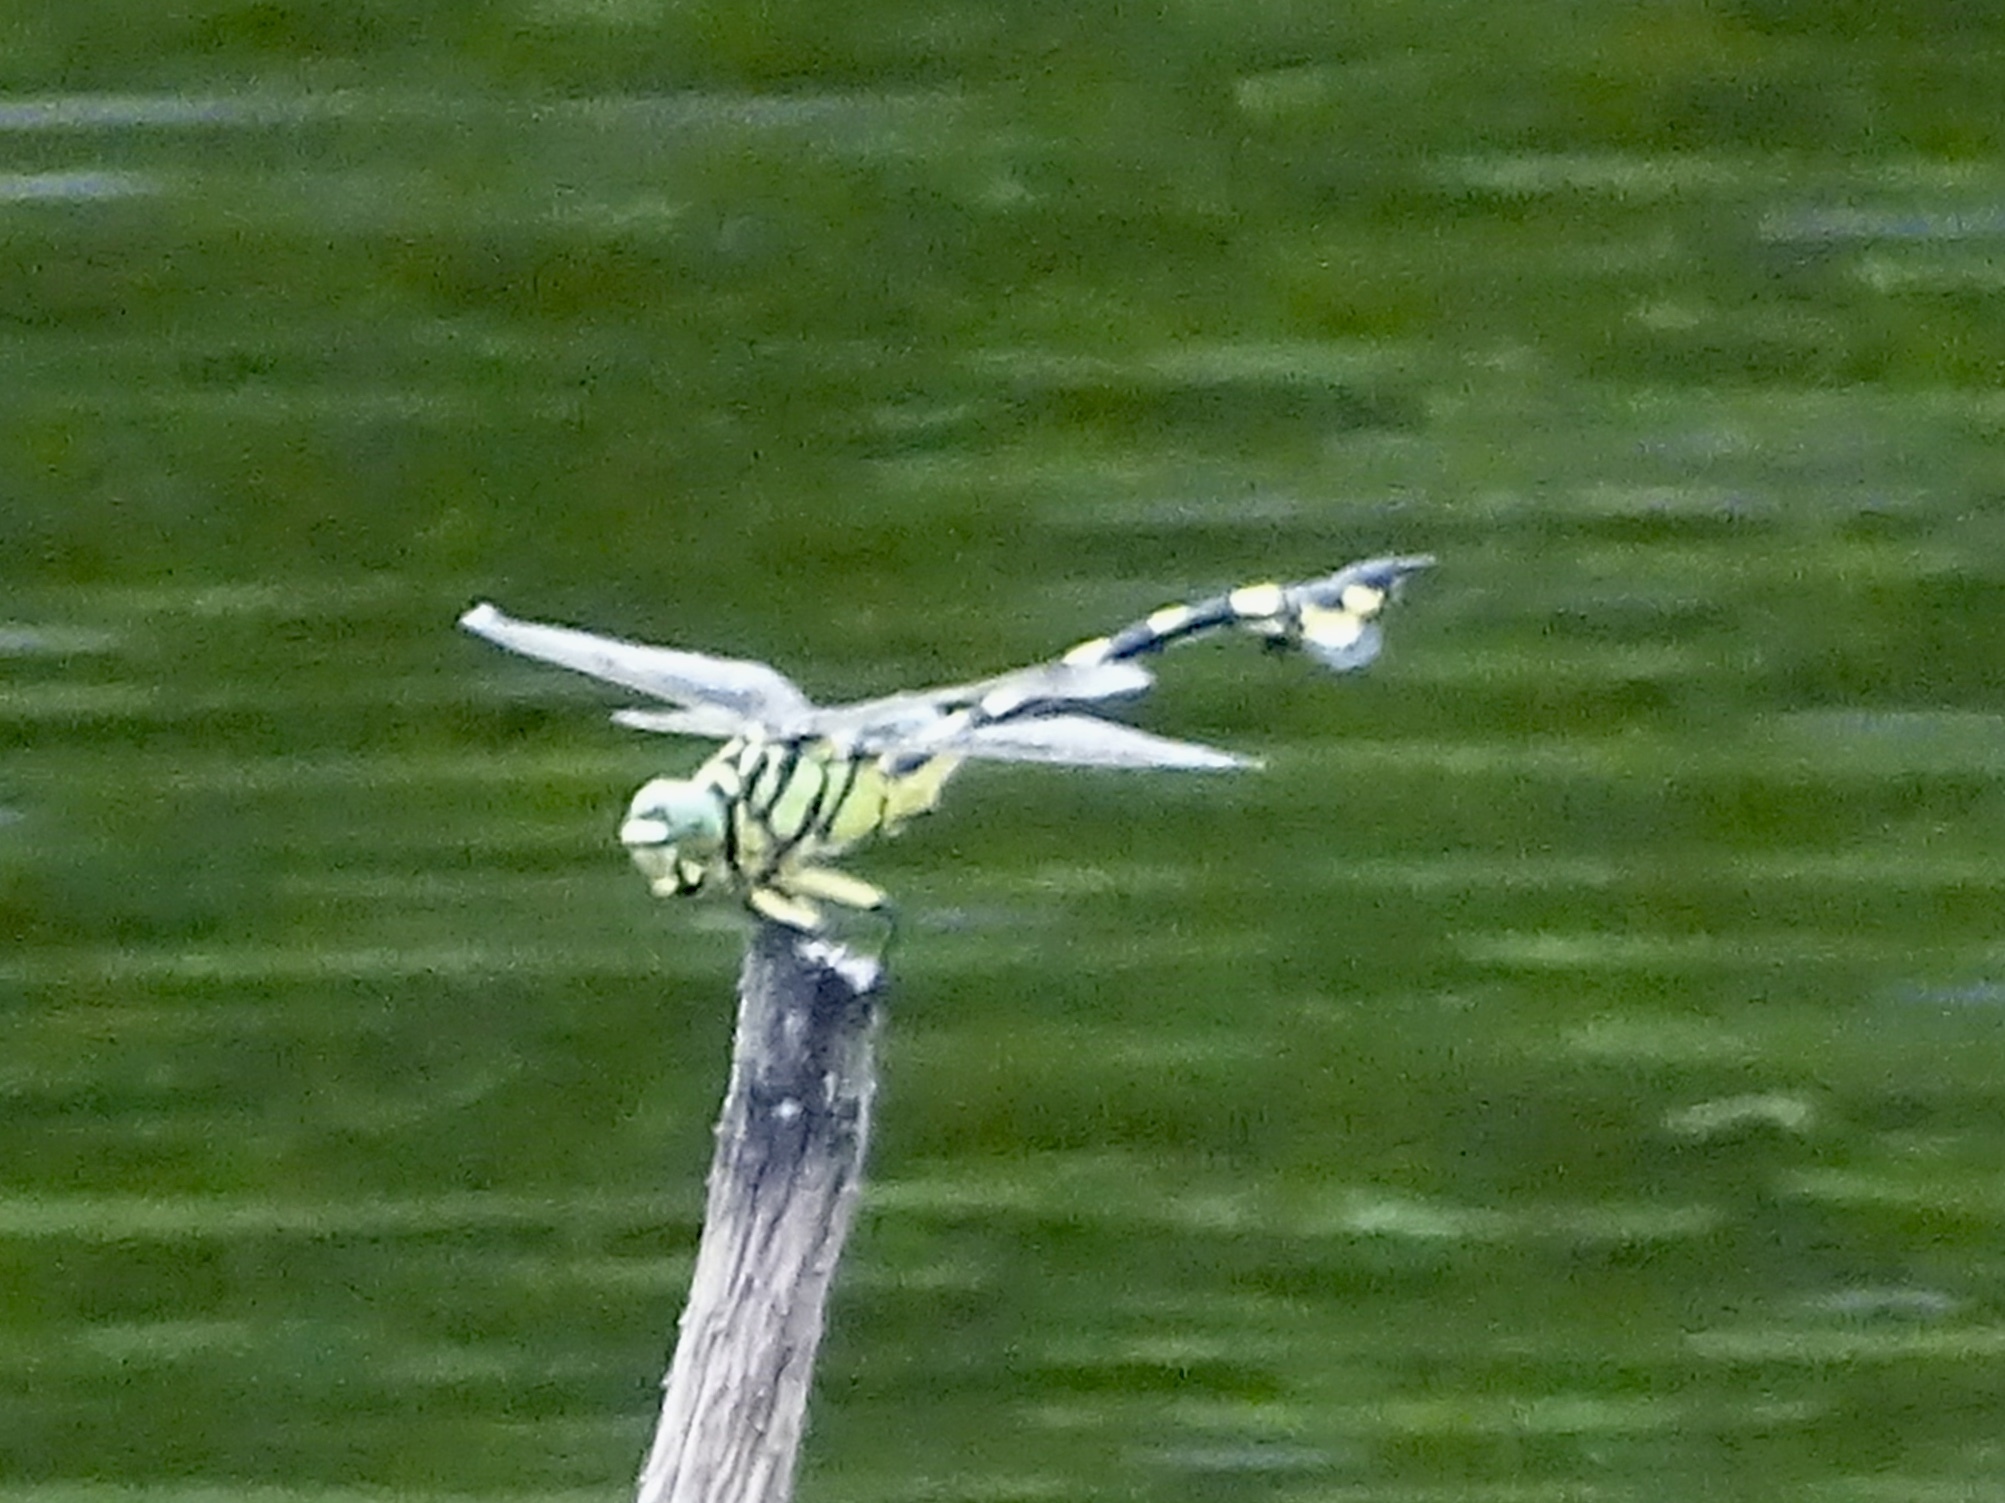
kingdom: Animalia
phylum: Arthropoda
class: Insecta
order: Odonata
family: Gomphidae
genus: Sinictinogomphus
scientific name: Sinictinogomphus clavatus
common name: Golden flangetail
